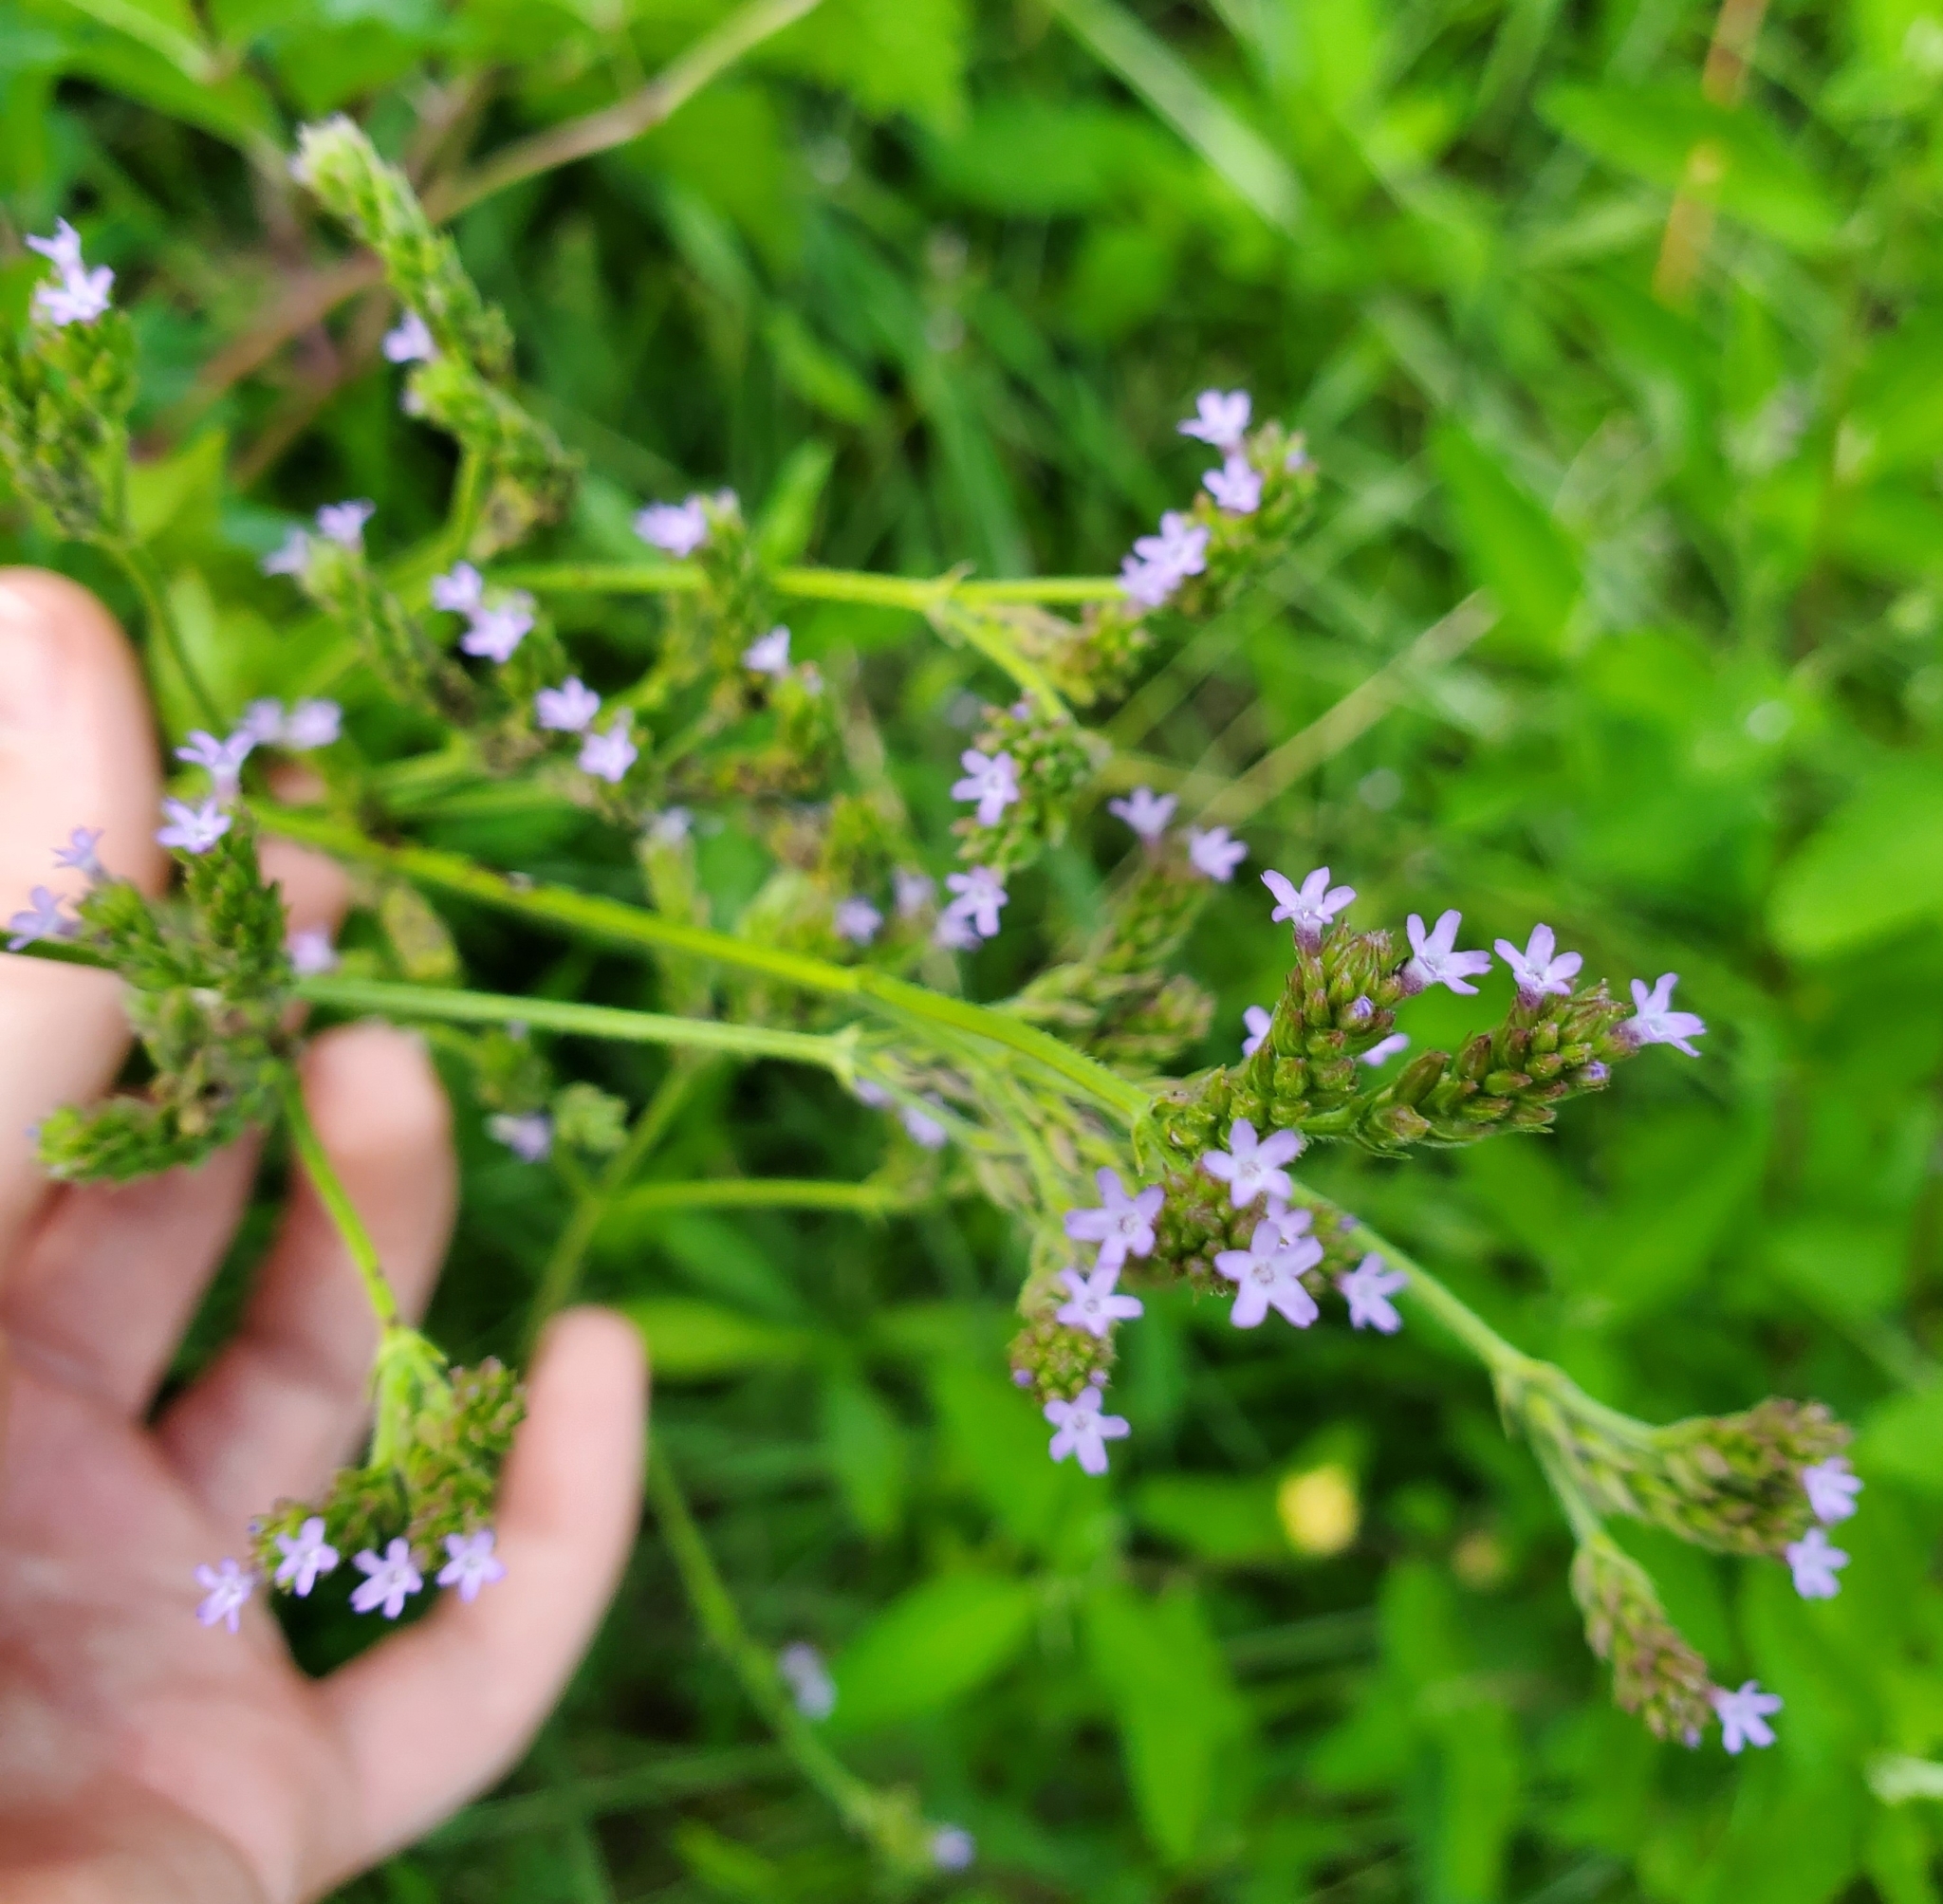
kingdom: Plantae
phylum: Tracheophyta
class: Magnoliopsida
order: Lamiales
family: Verbenaceae
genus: Verbena
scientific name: Verbena brasiliensis
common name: Brazilian vervain
